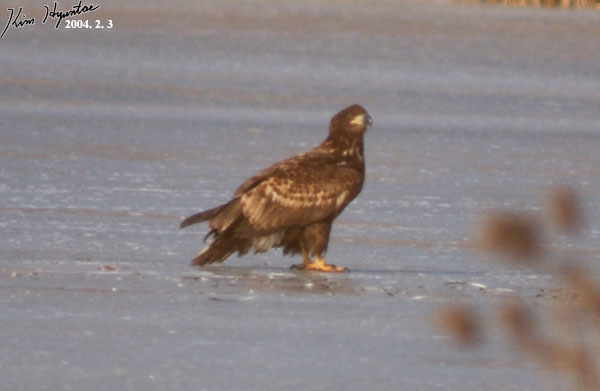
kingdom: Animalia
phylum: Chordata
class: Aves
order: Accipitriformes
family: Accipitridae
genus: Haliaeetus
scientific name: Haliaeetus albicilla
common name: White-tailed eagle
